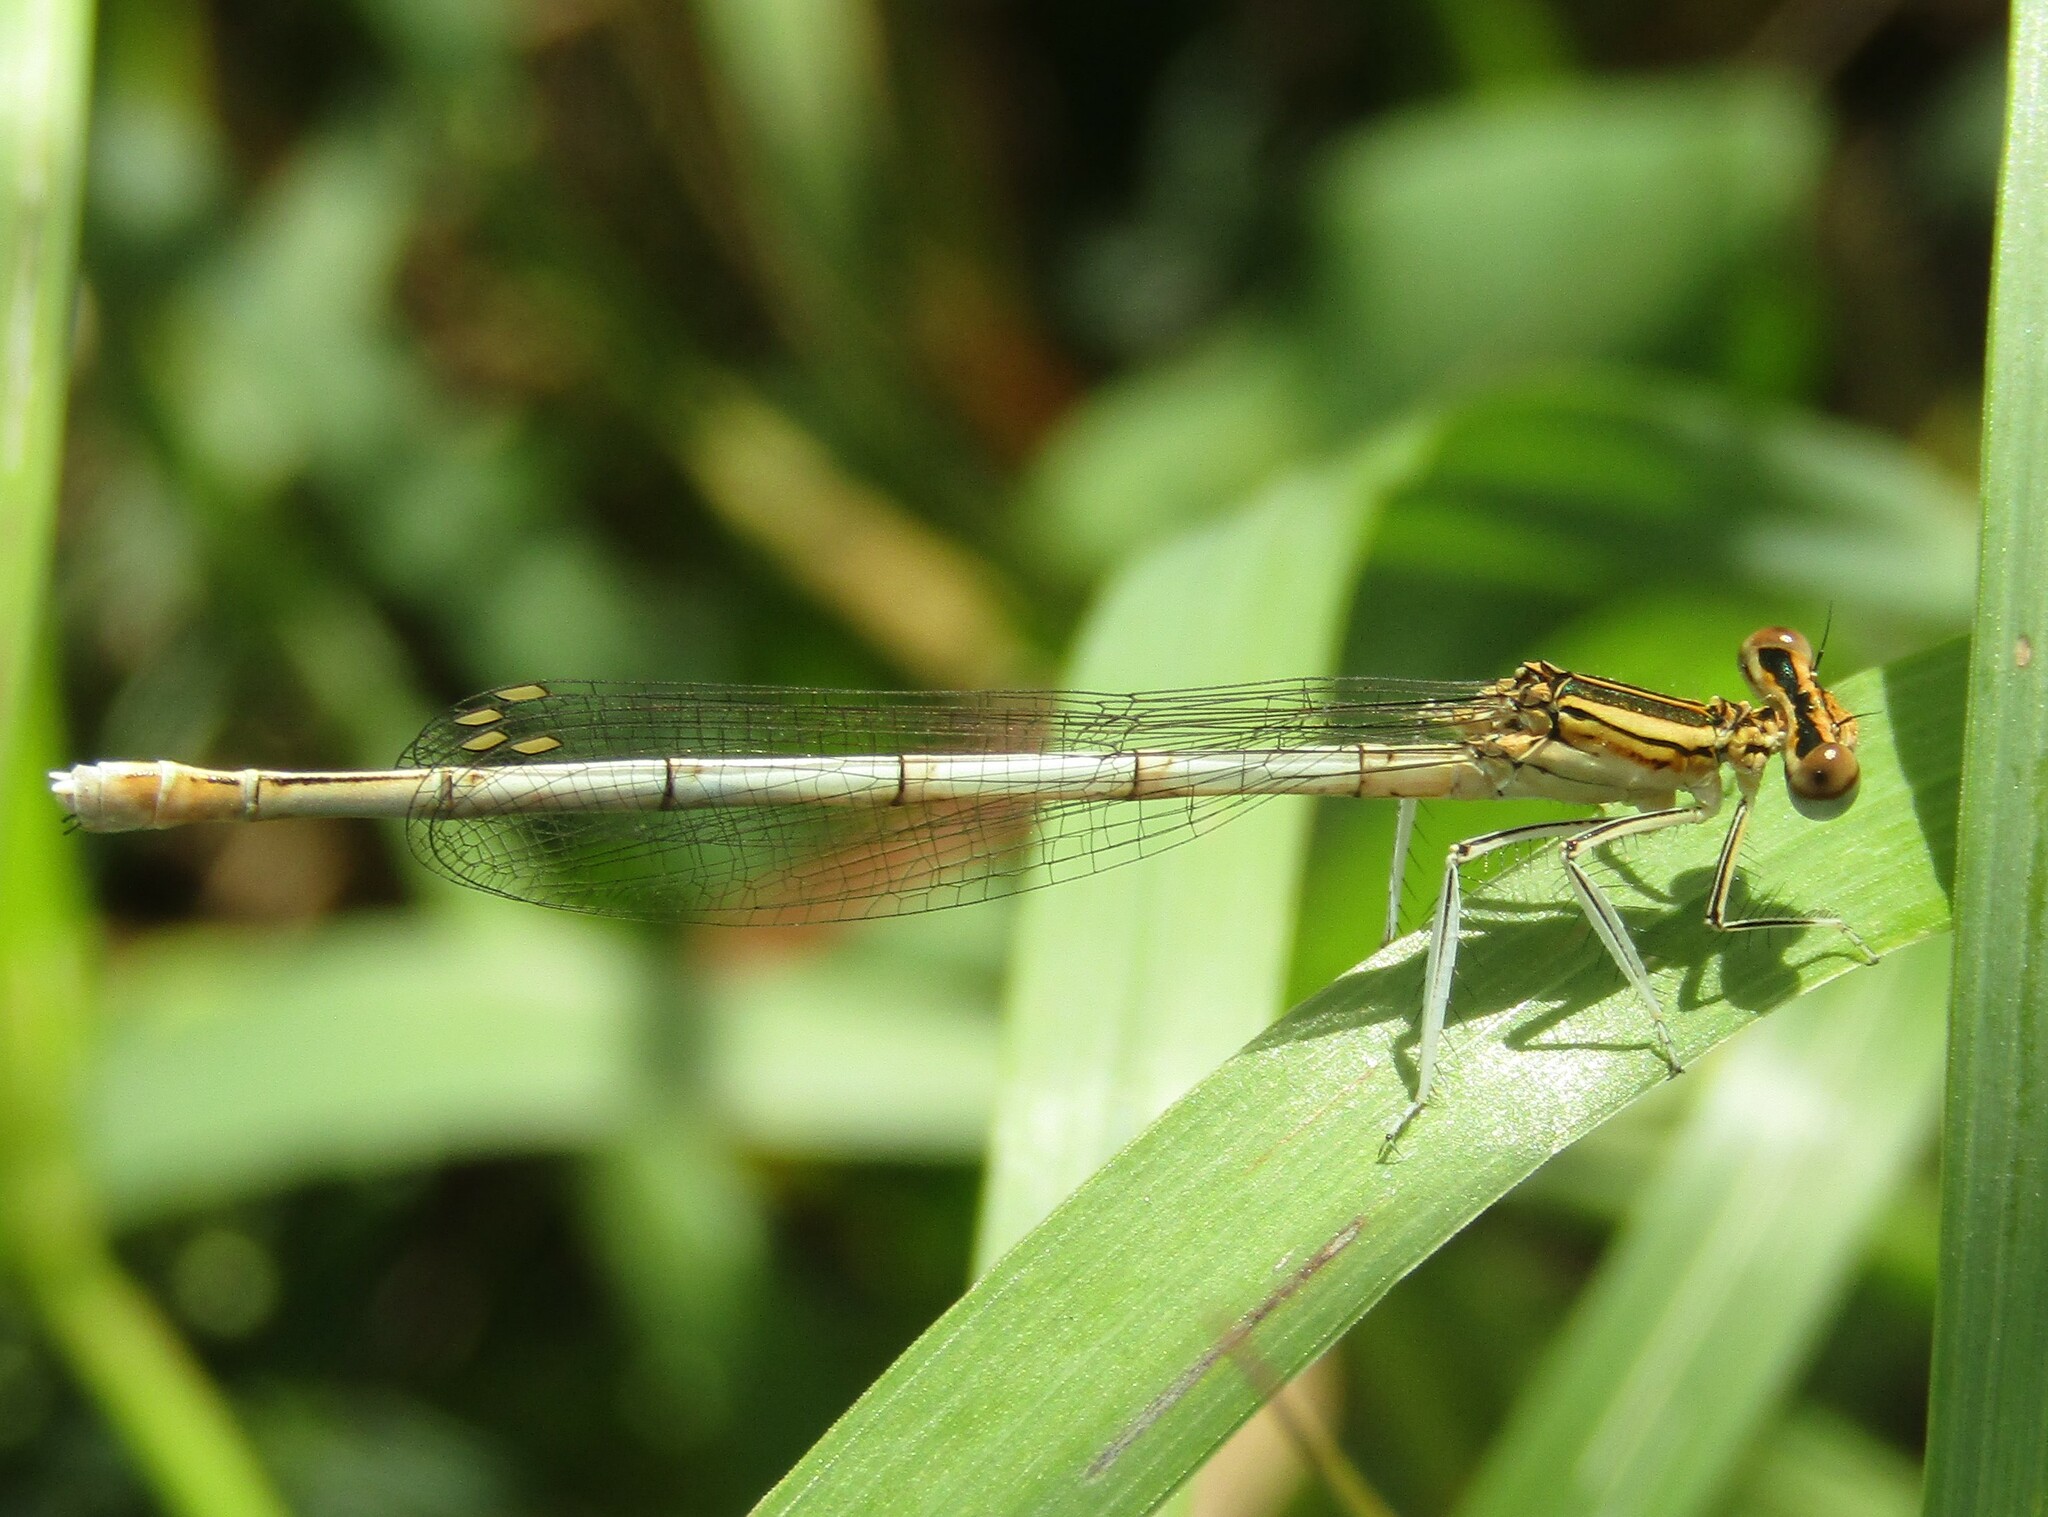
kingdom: Animalia
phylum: Arthropoda
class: Insecta
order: Odonata
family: Platycnemididae
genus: Platycnemis
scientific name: Platycnemis pennipes
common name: White-legged damselfly
